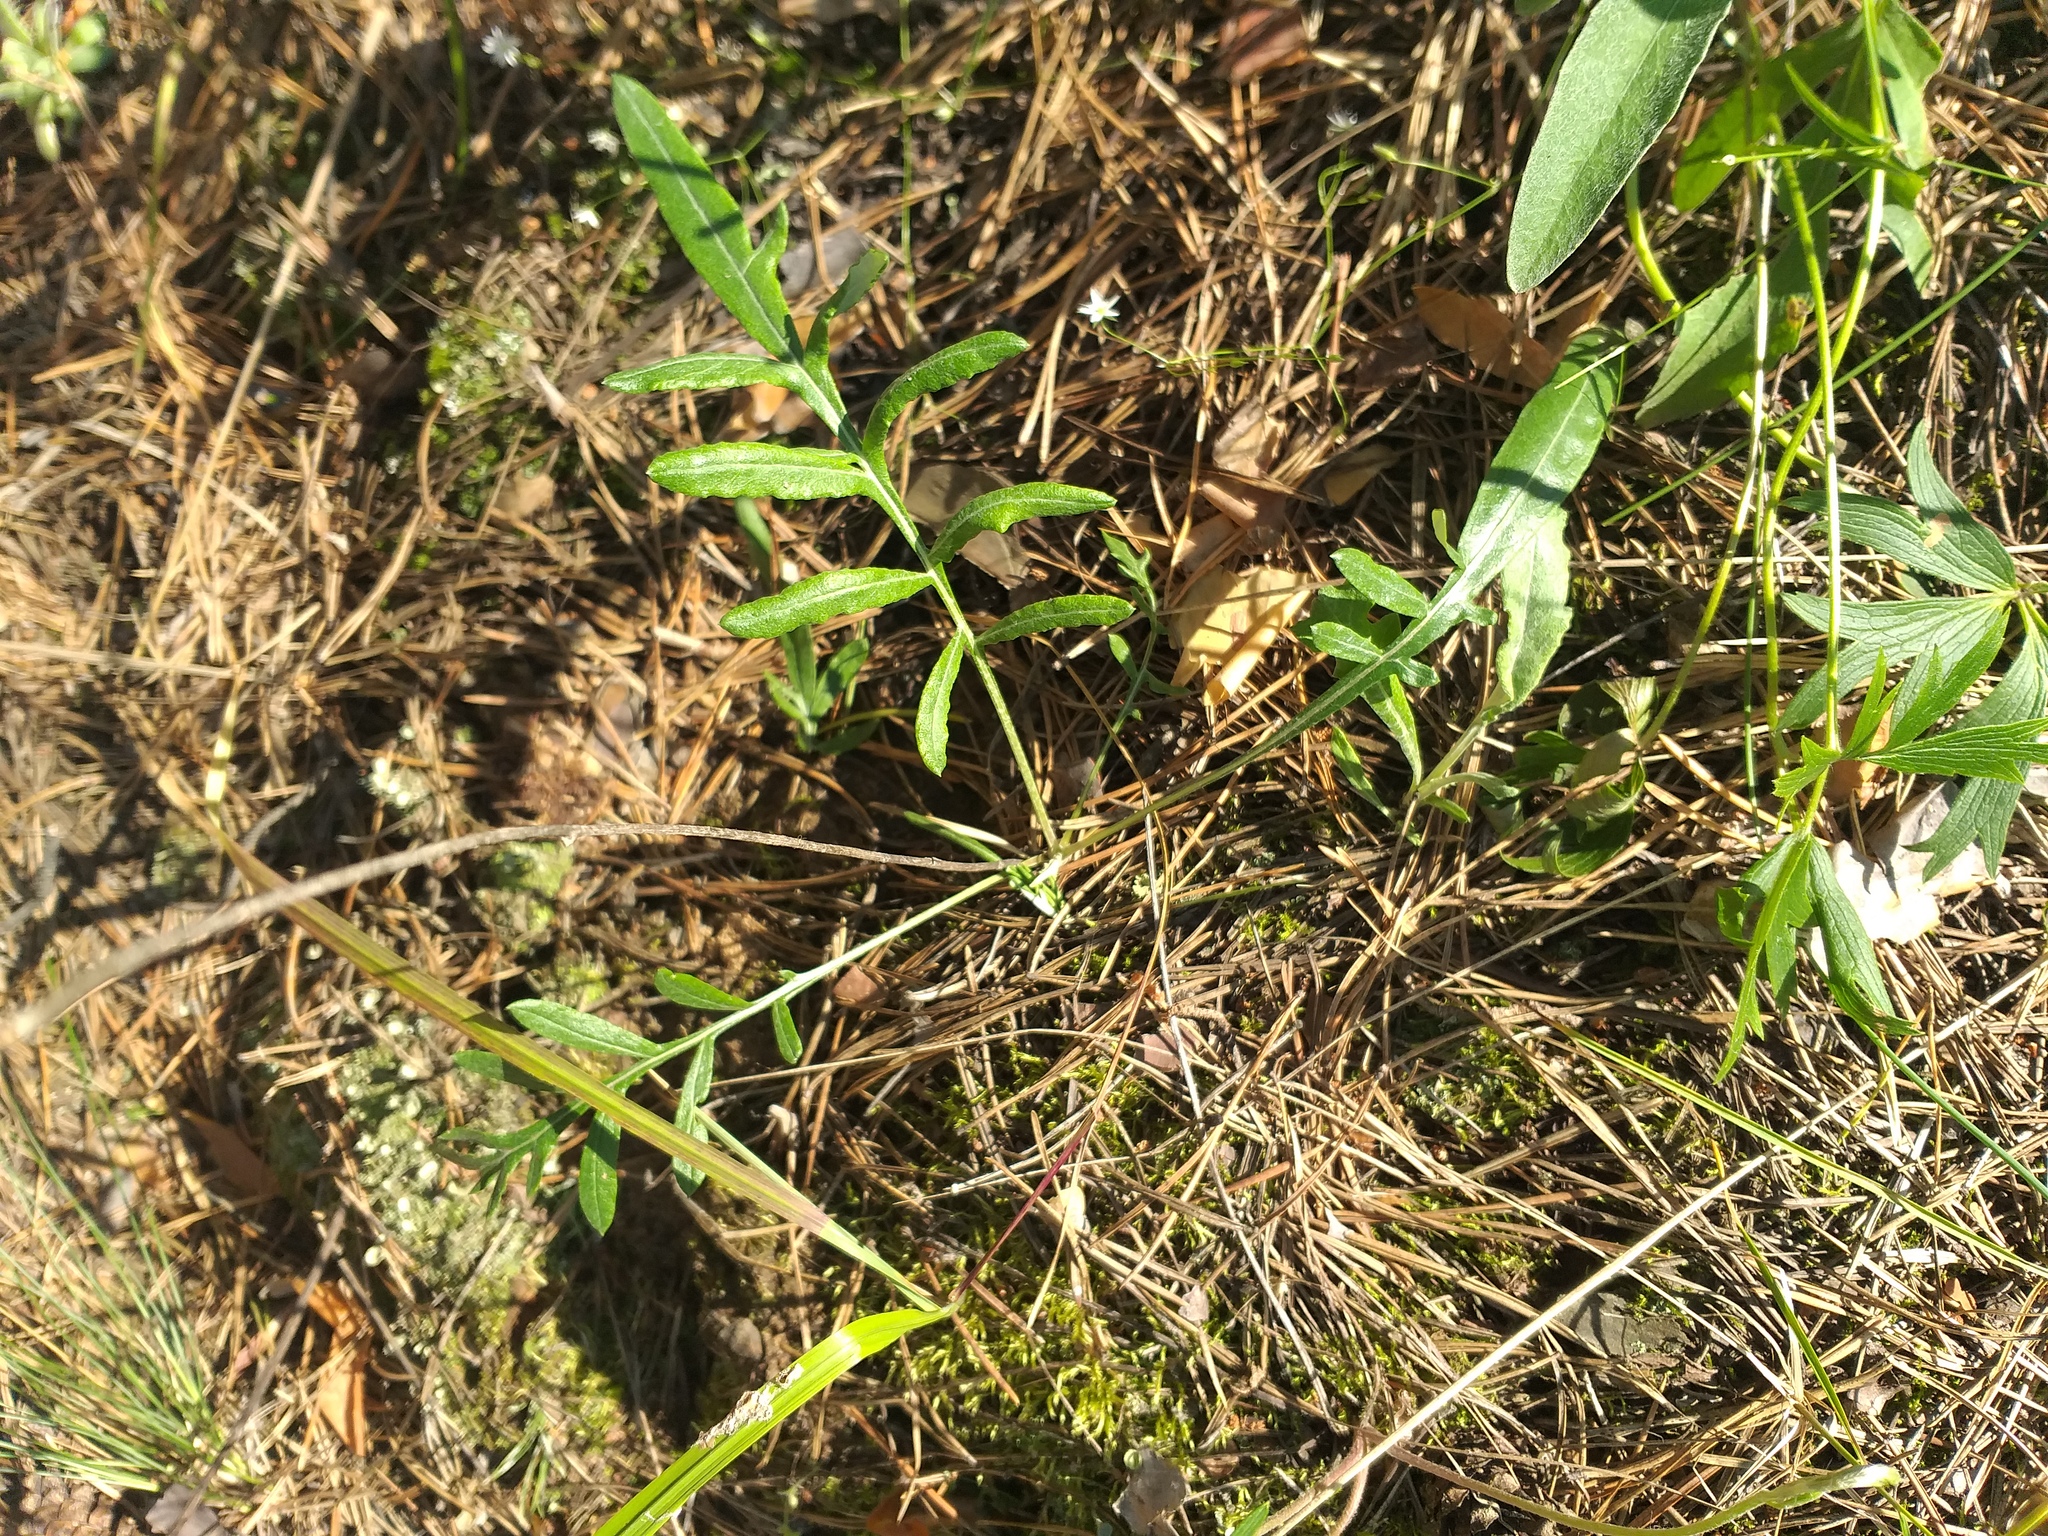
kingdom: Plantae
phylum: Tracheophyta
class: Magnoliopsida
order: Asterales
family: Asteraceae
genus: Jurinea
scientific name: Jurinea cyanoides
